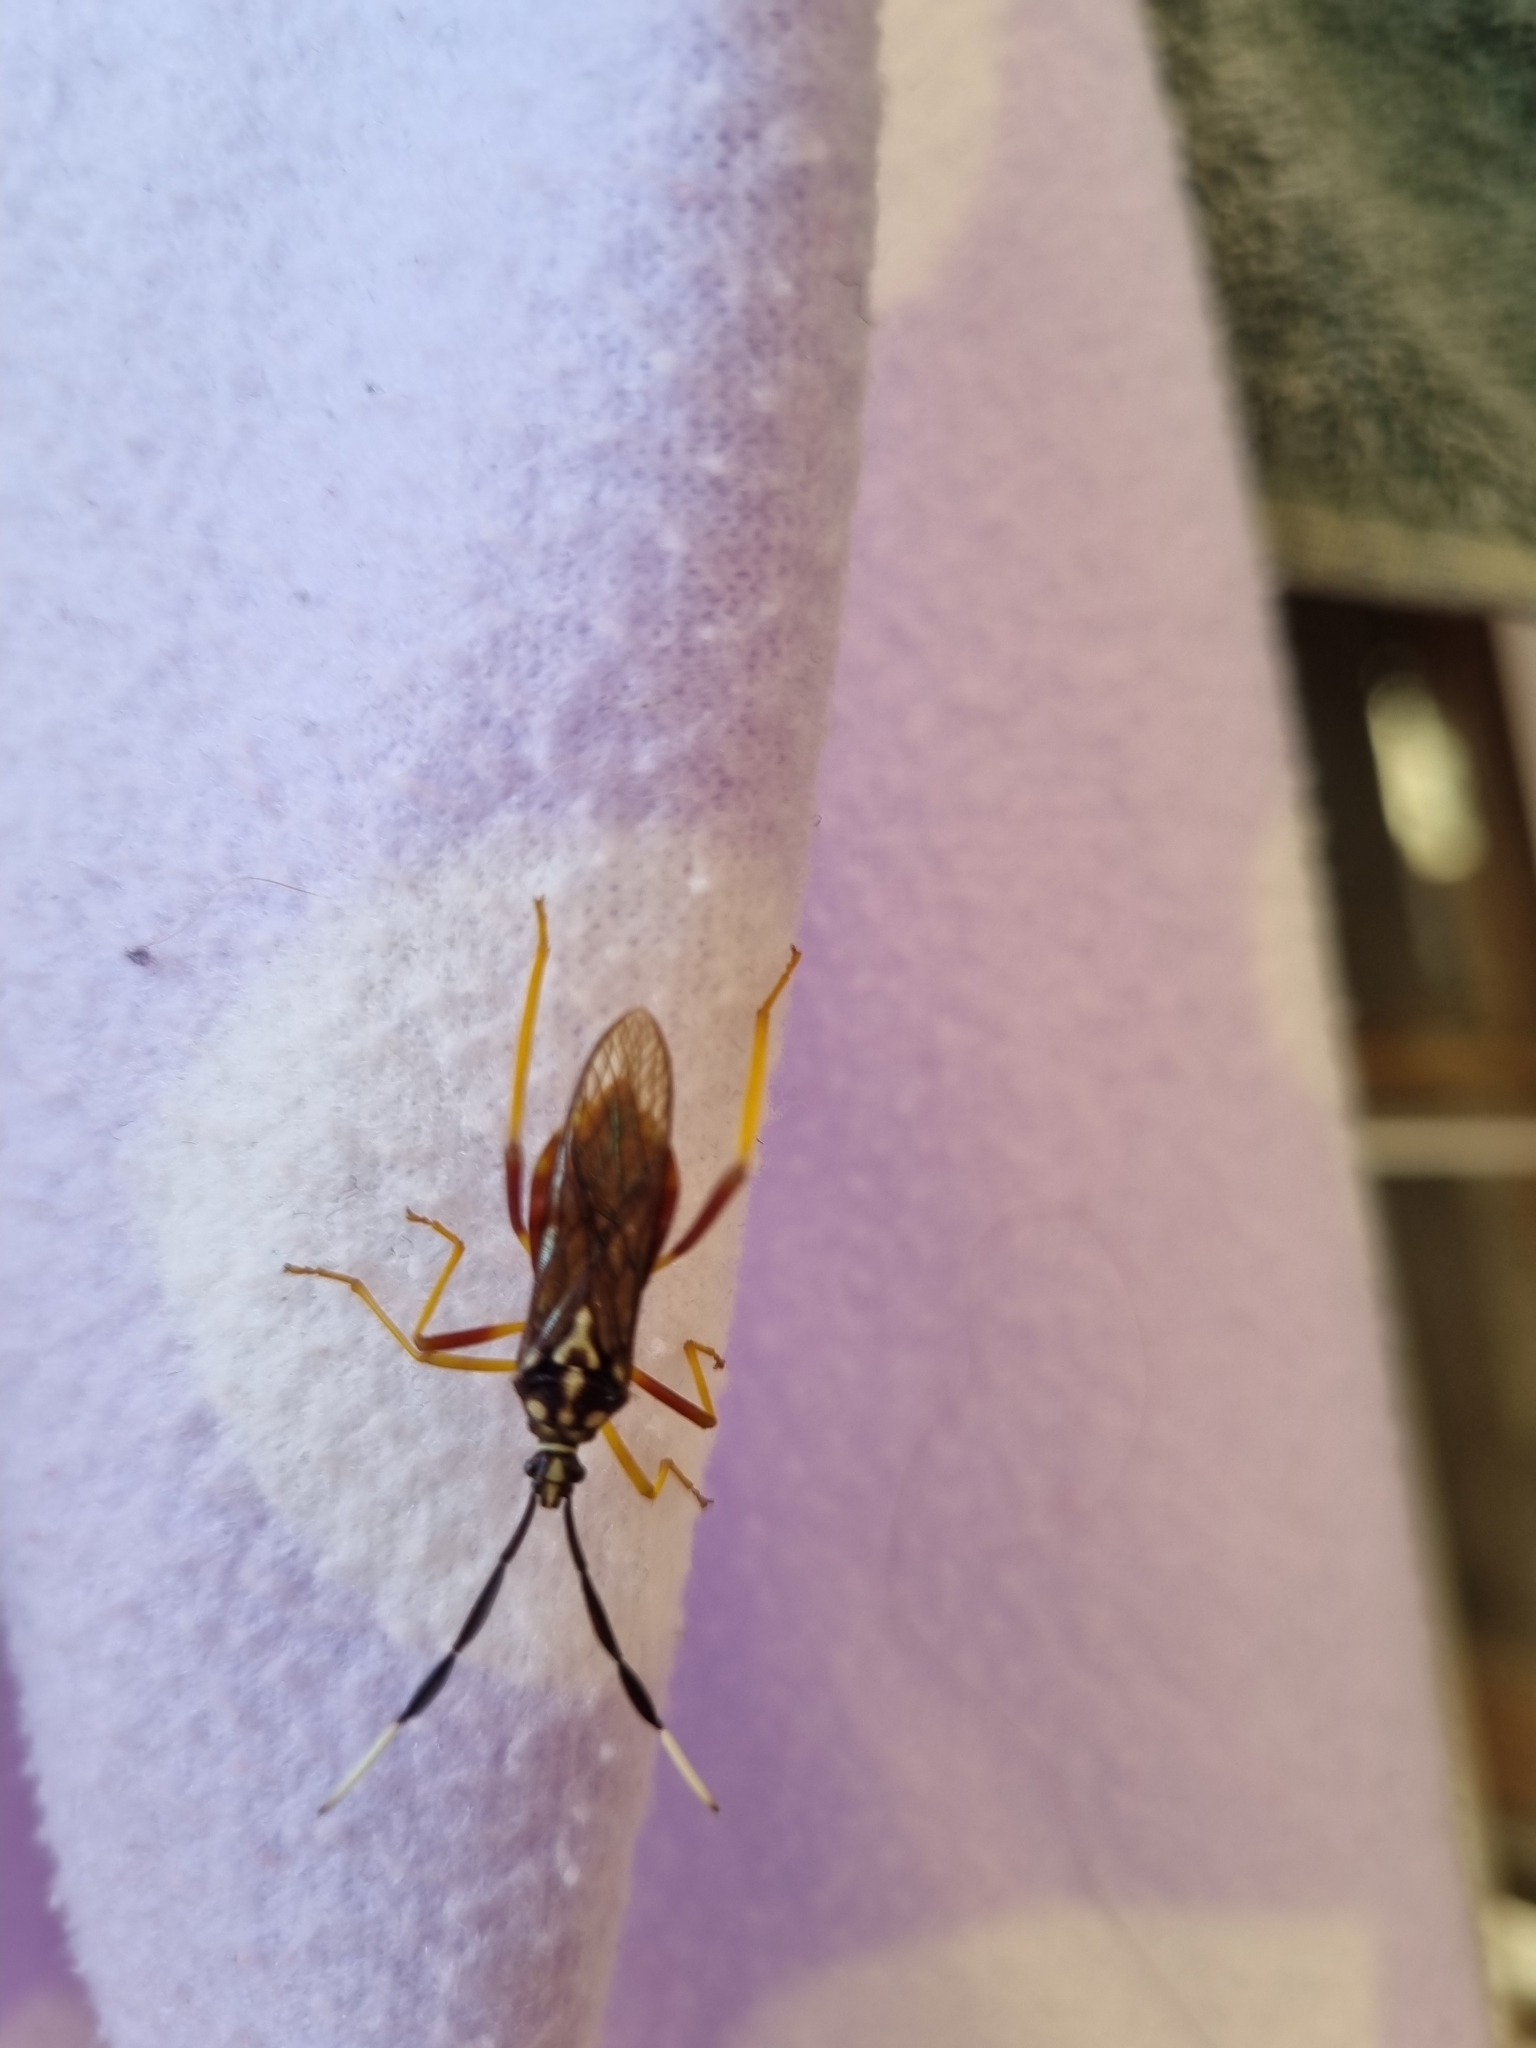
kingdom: Animalia
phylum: Arthropoda
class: Insecta
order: Hemiptera
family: Coreidae
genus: Holhymenia
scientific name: Holhymenia histrio
